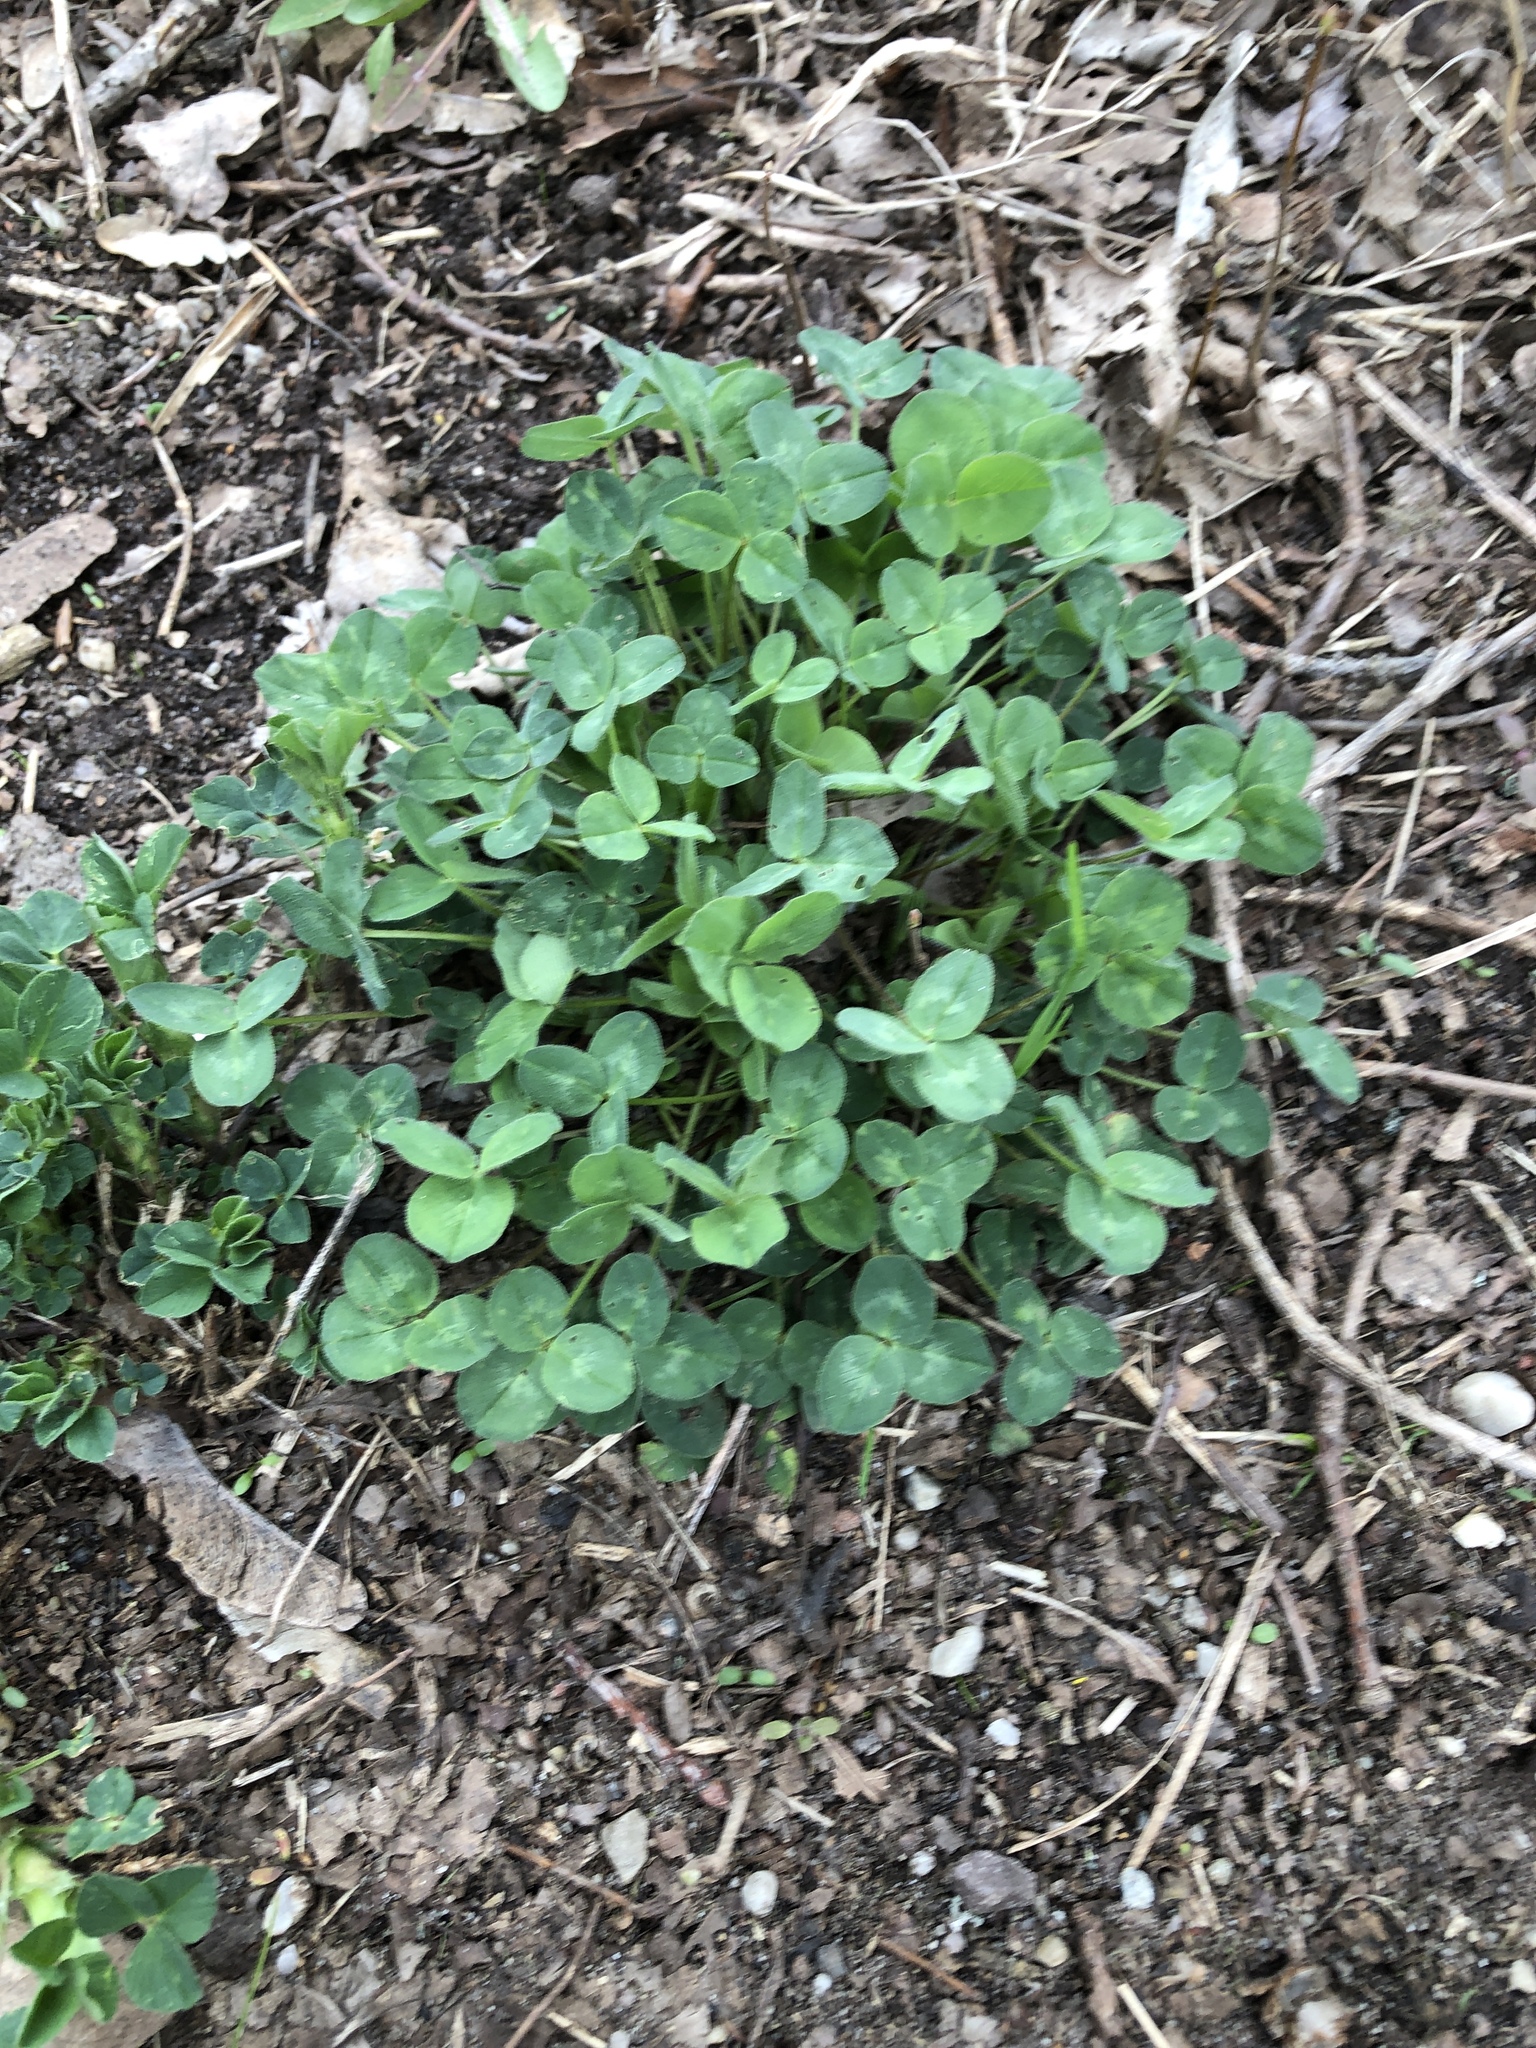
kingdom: Plantae
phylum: Tracheophyta
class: Magnoliopsida
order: Fabales
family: Fabaceae
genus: Trifolium
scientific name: Trifolium repens
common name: White clover
